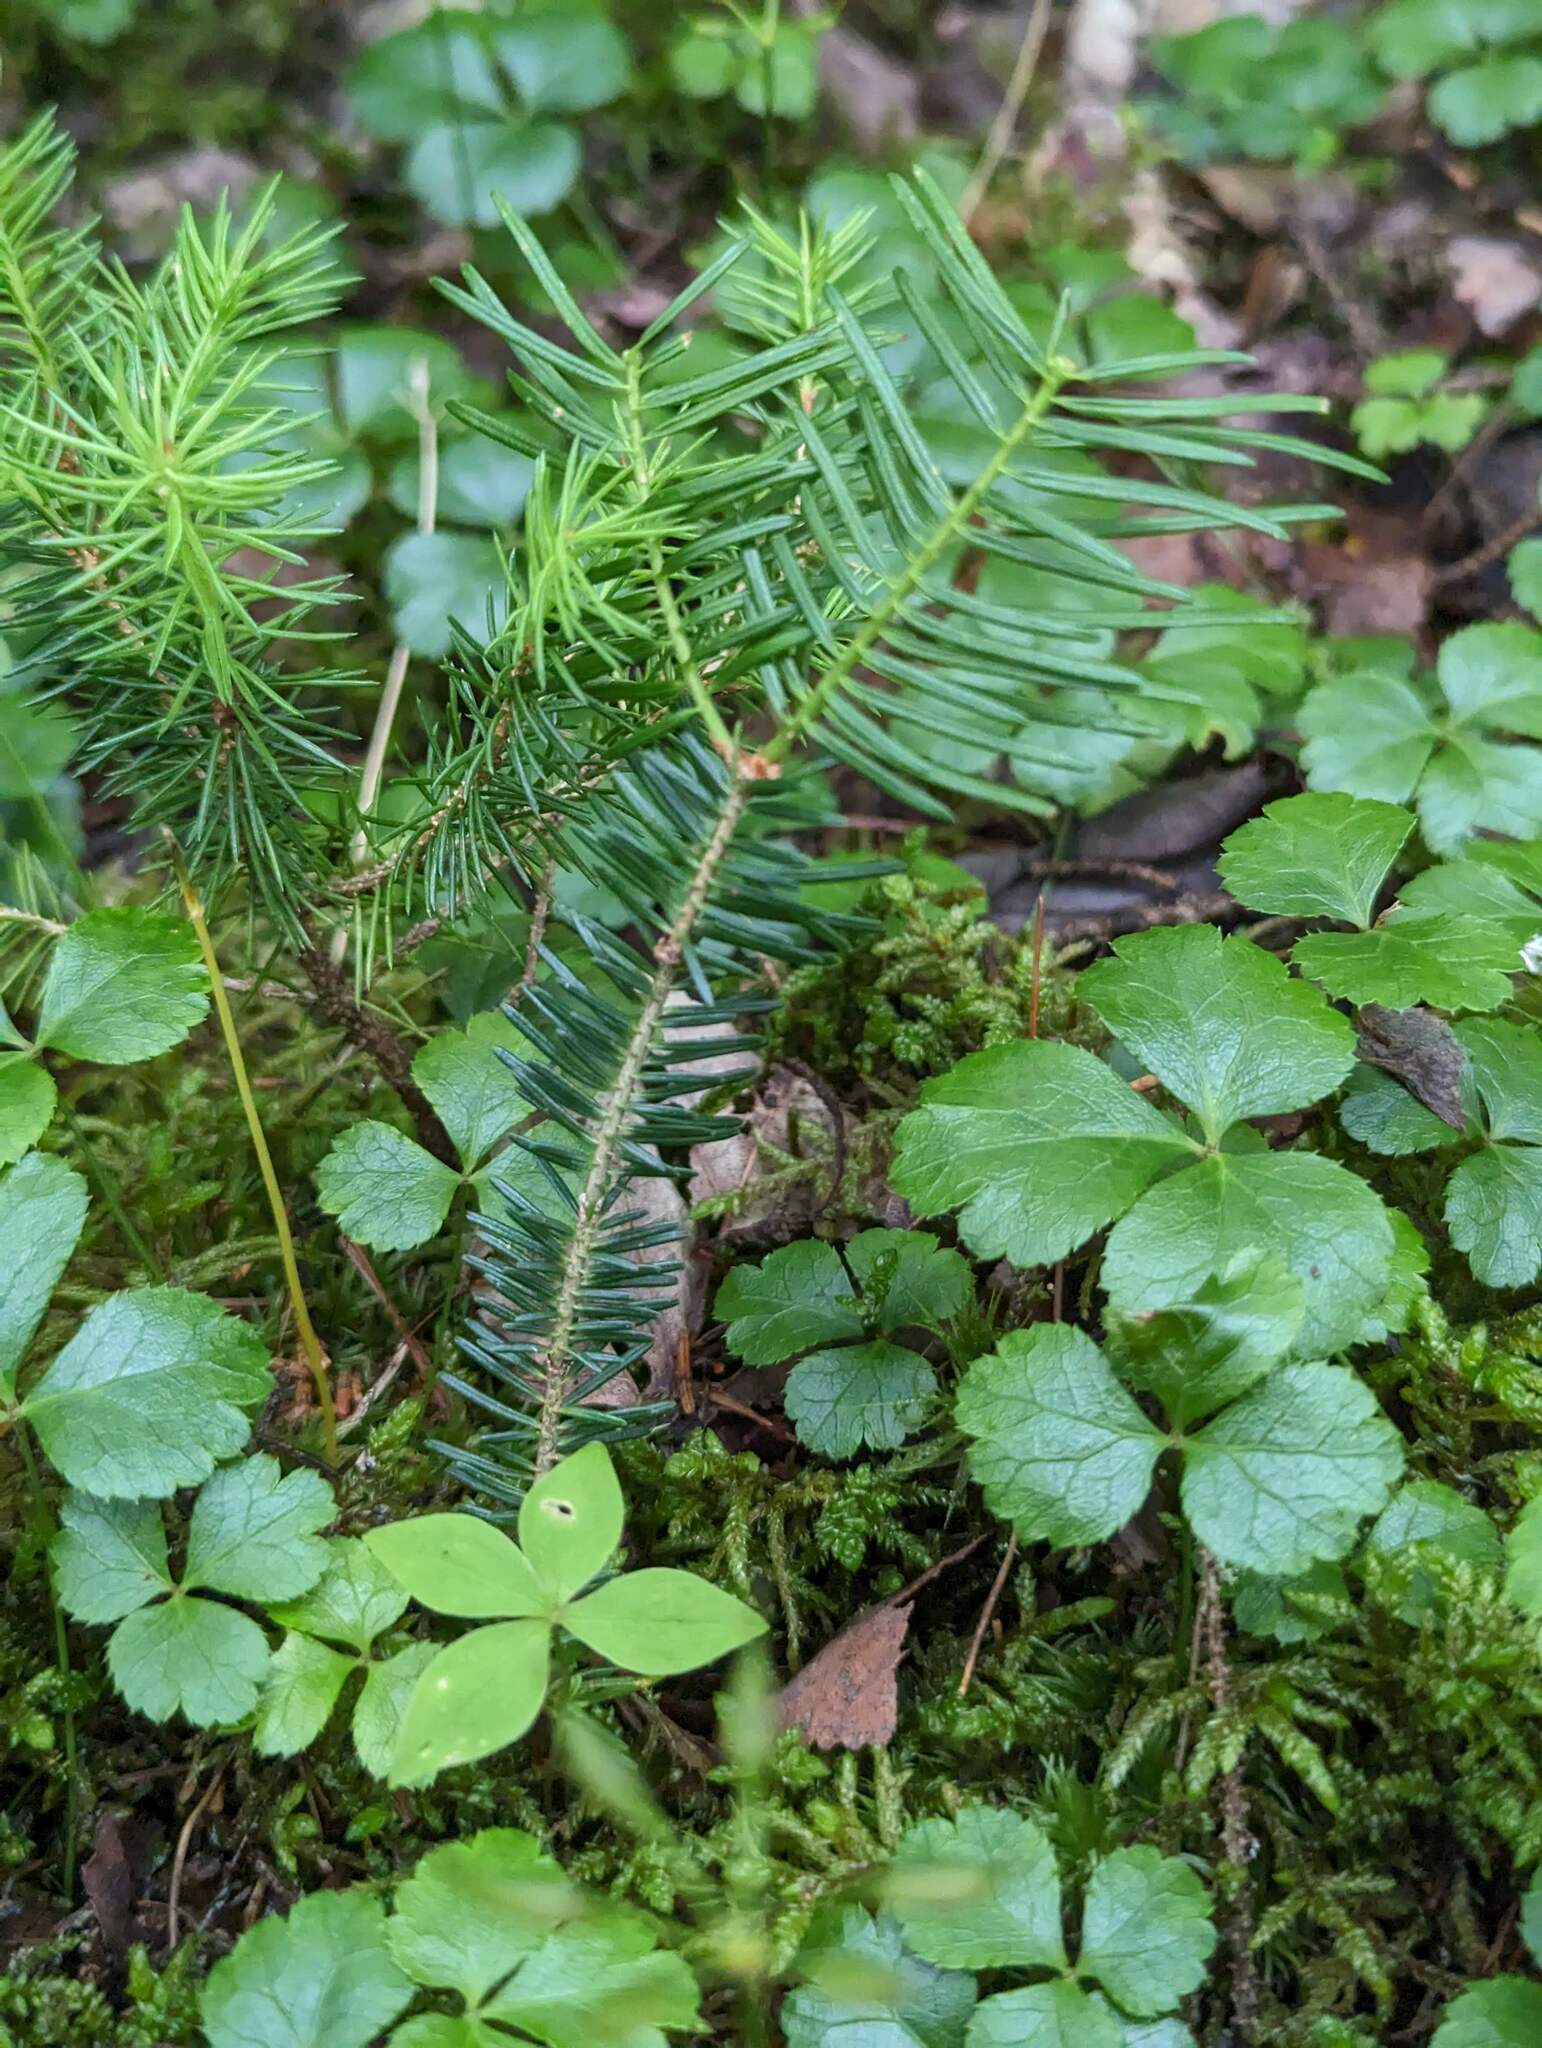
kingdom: Plantae
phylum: Tracheophyta
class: Pinopsida
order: Pinales
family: Pinaceae
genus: Abies
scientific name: Abies balsamea
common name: Balsam fir
